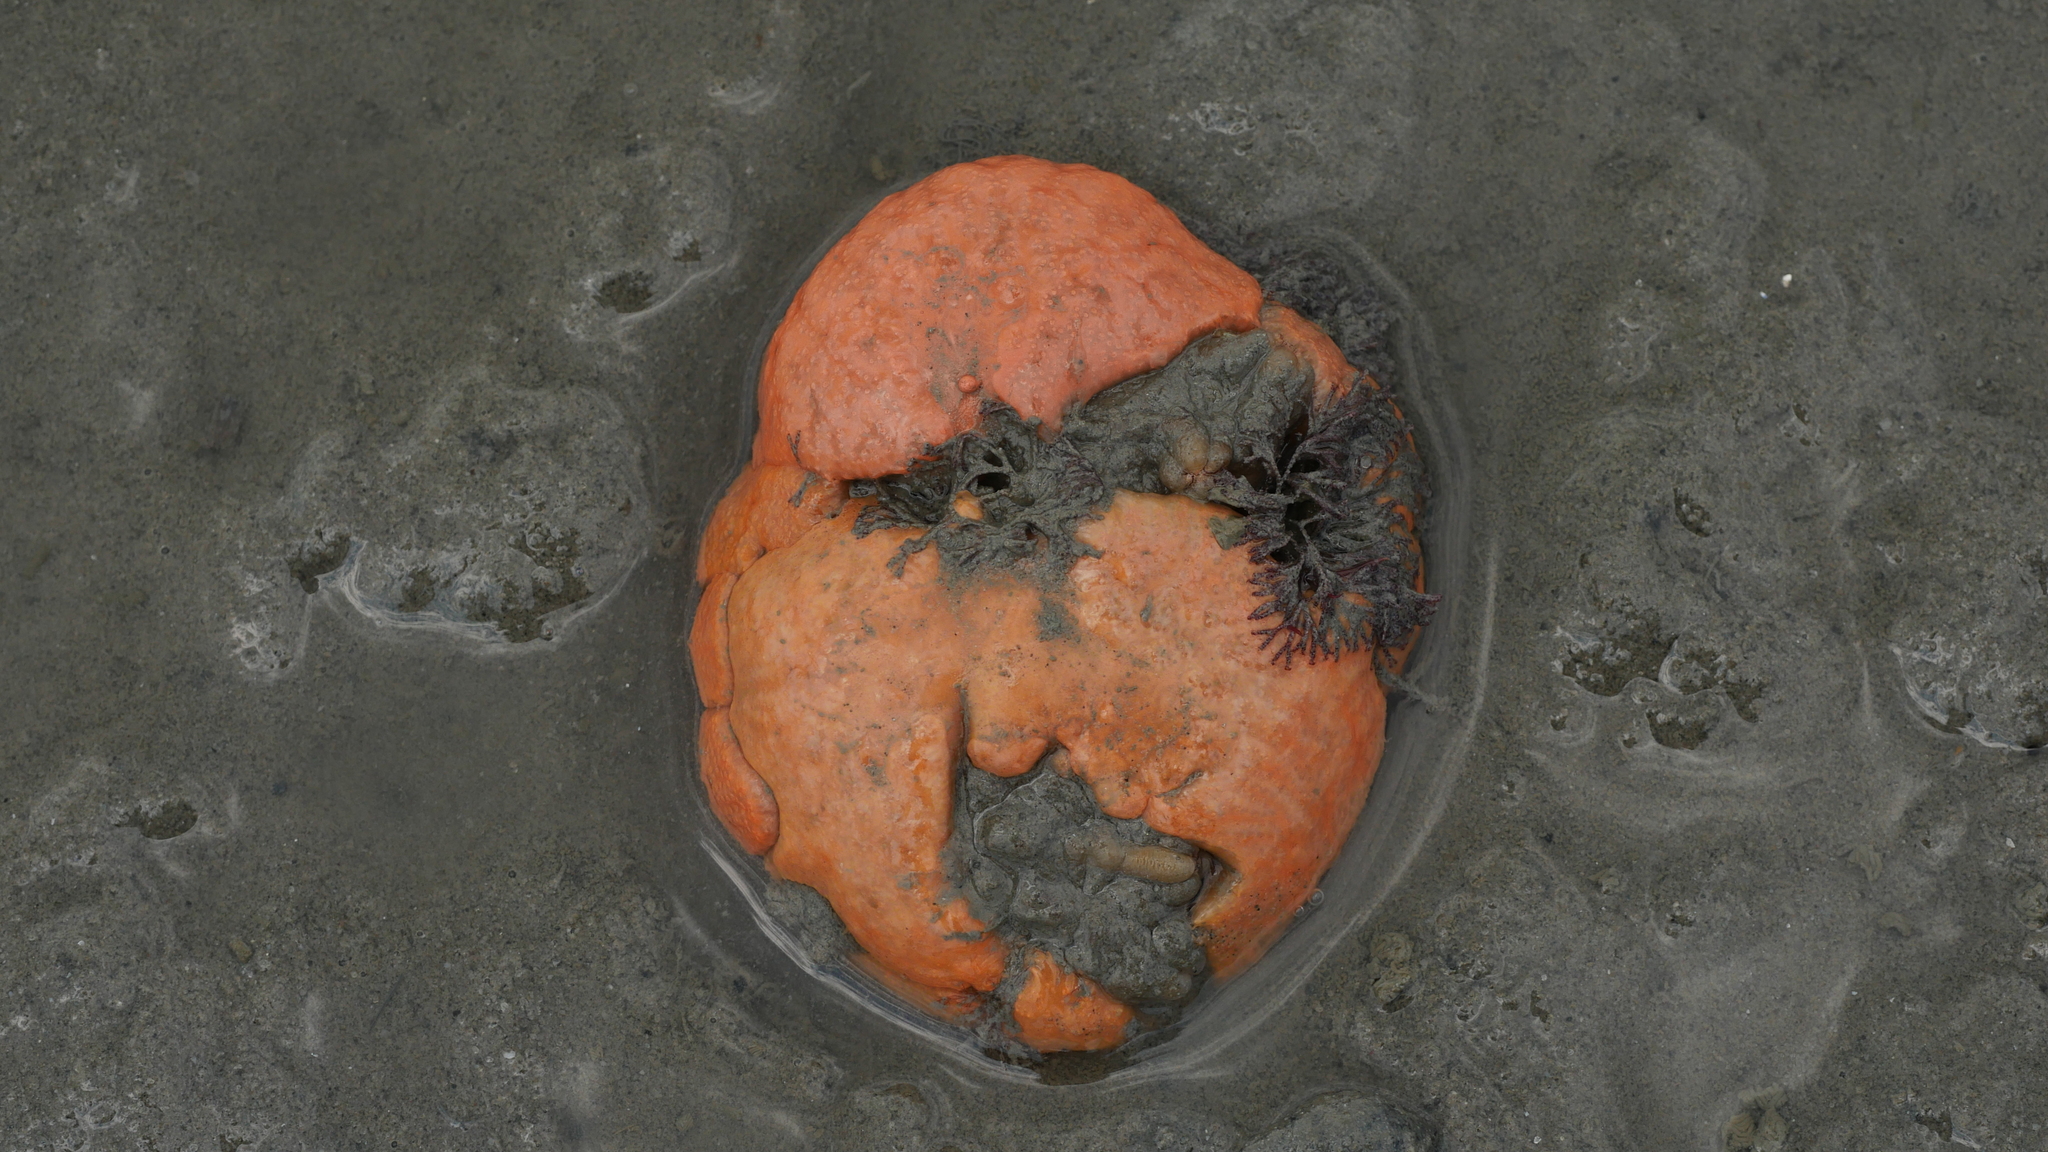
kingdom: Animalia
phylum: Chordata
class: Ascidiacea
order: Aplousobranchia
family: Polyclinidae
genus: Aplidium
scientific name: Aplidium stellatum
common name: Atlantic sea pork
